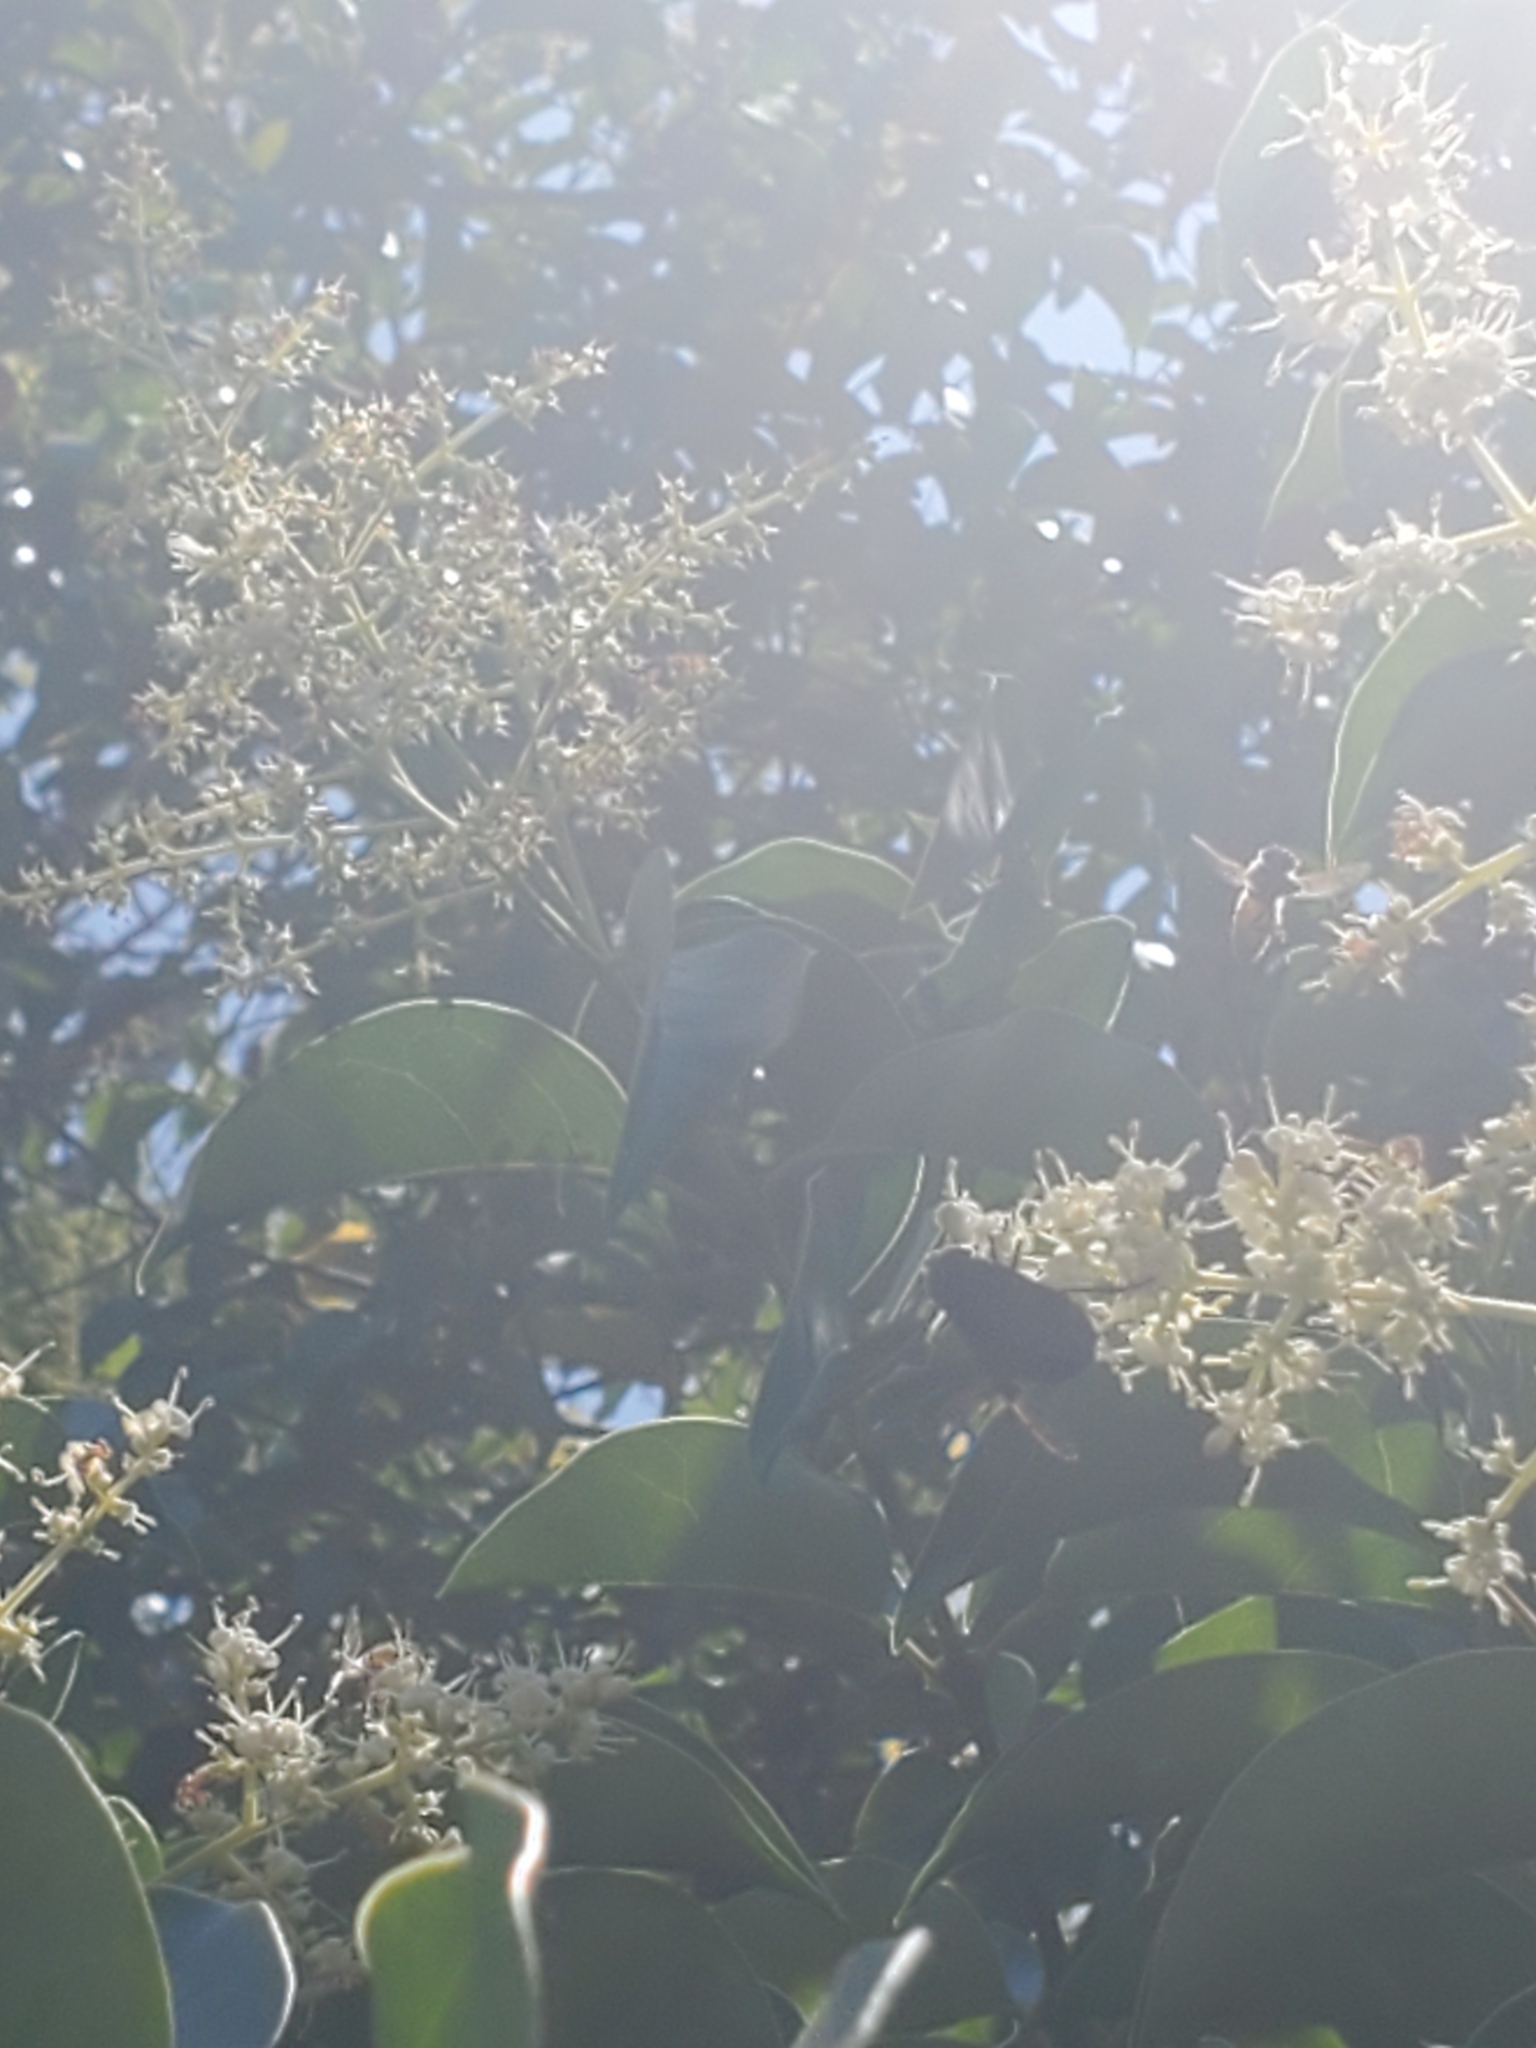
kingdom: Animalia
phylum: Arthropoda
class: Insecta
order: Diptera
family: Syrphidae
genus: Copestylum
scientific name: Copestylum
